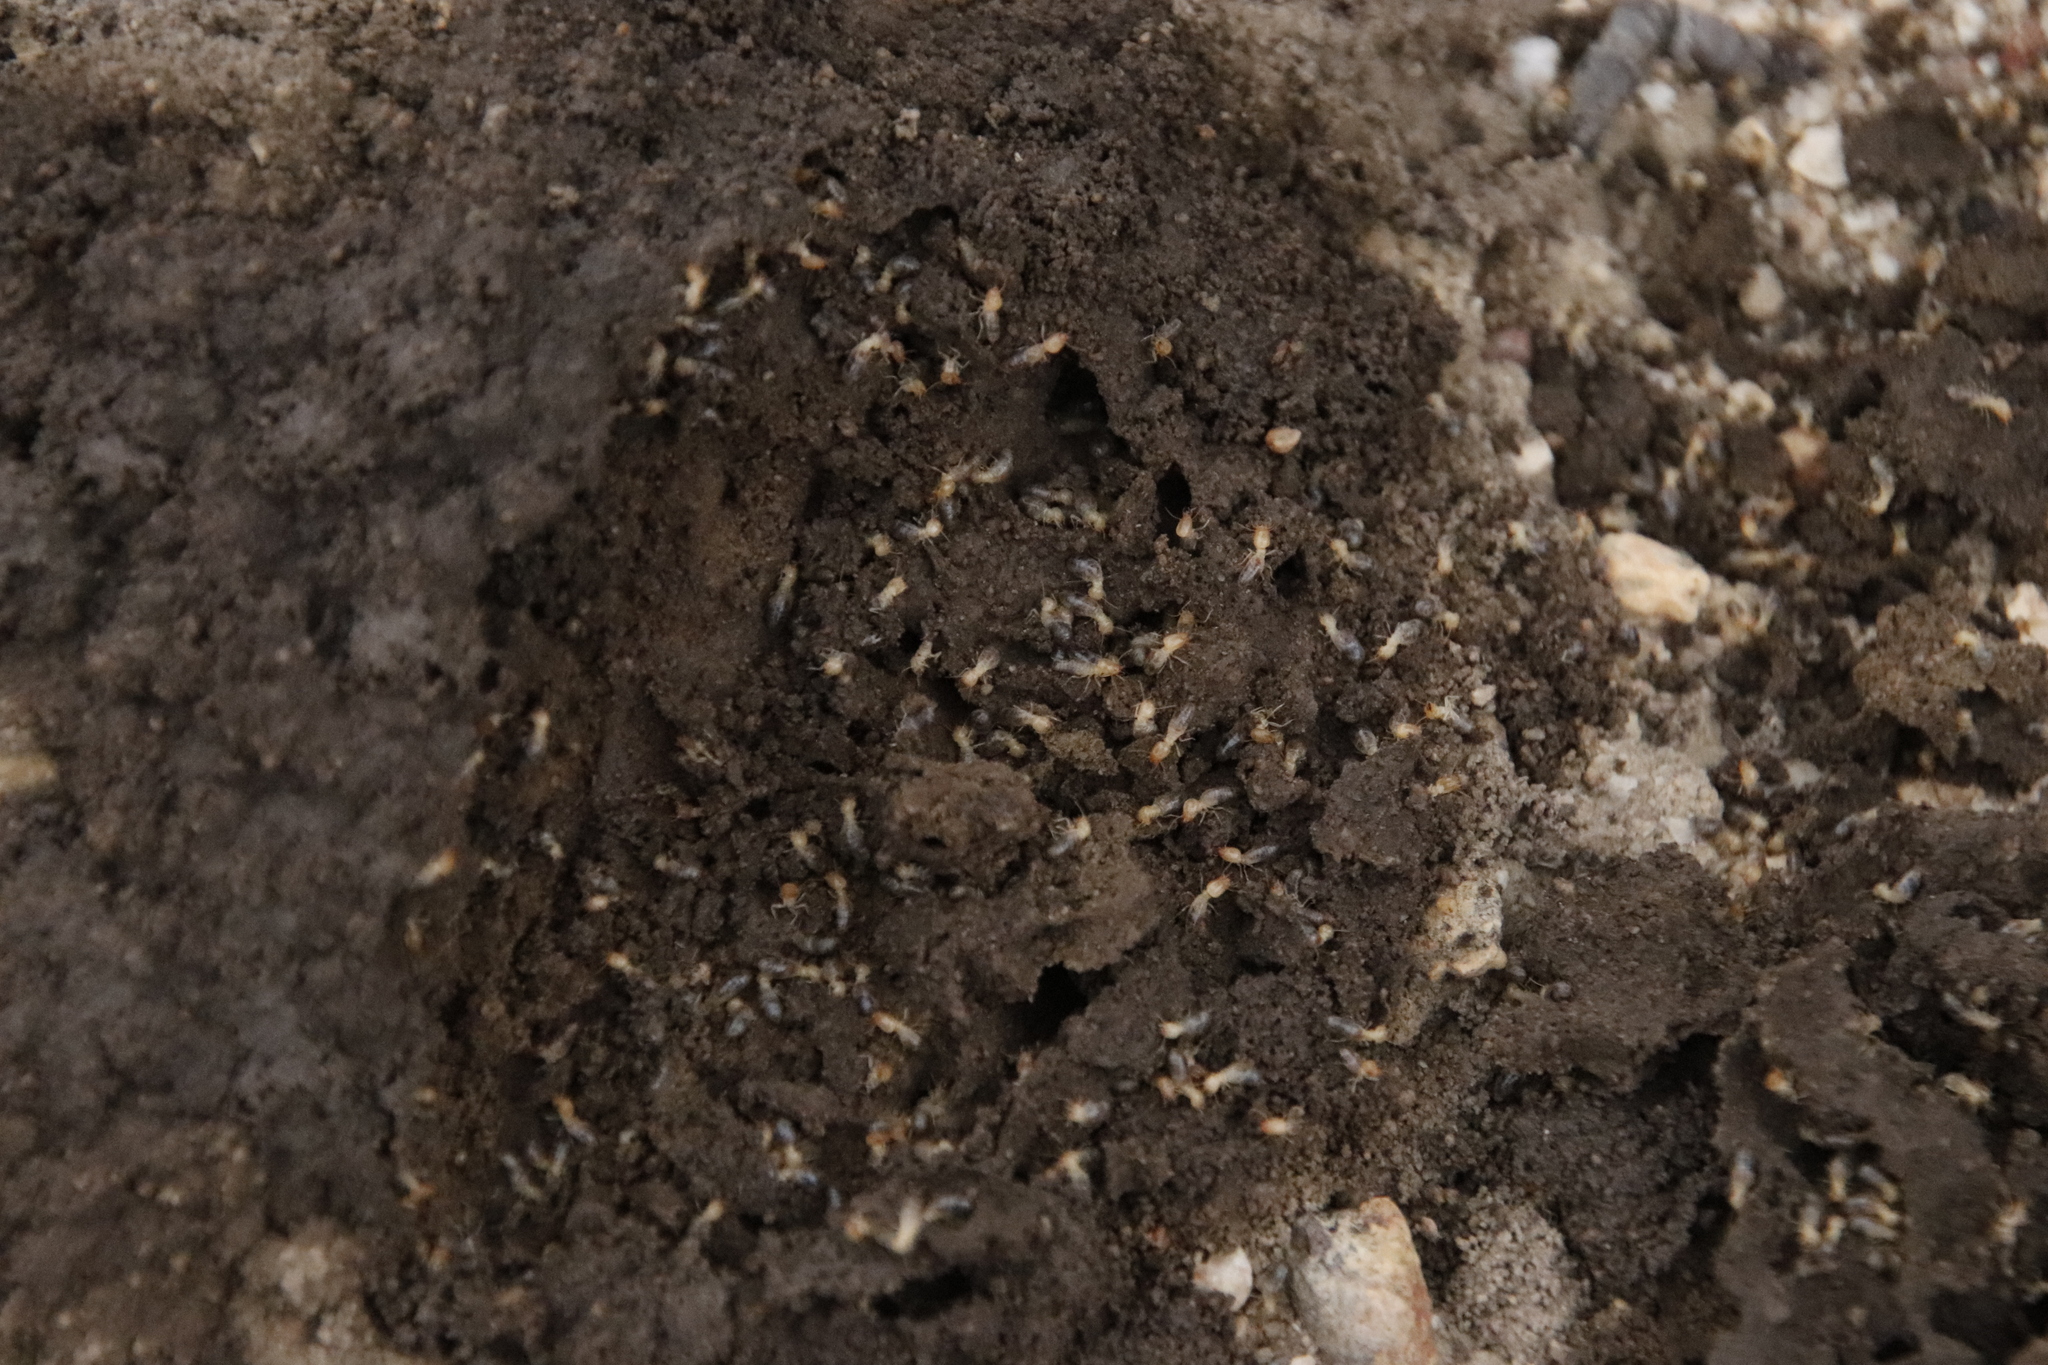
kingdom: Animalia
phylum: Arthropoda
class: Insecta
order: Blattodea
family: Termitidae
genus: Amitermes
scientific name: Amitermes hastatus
